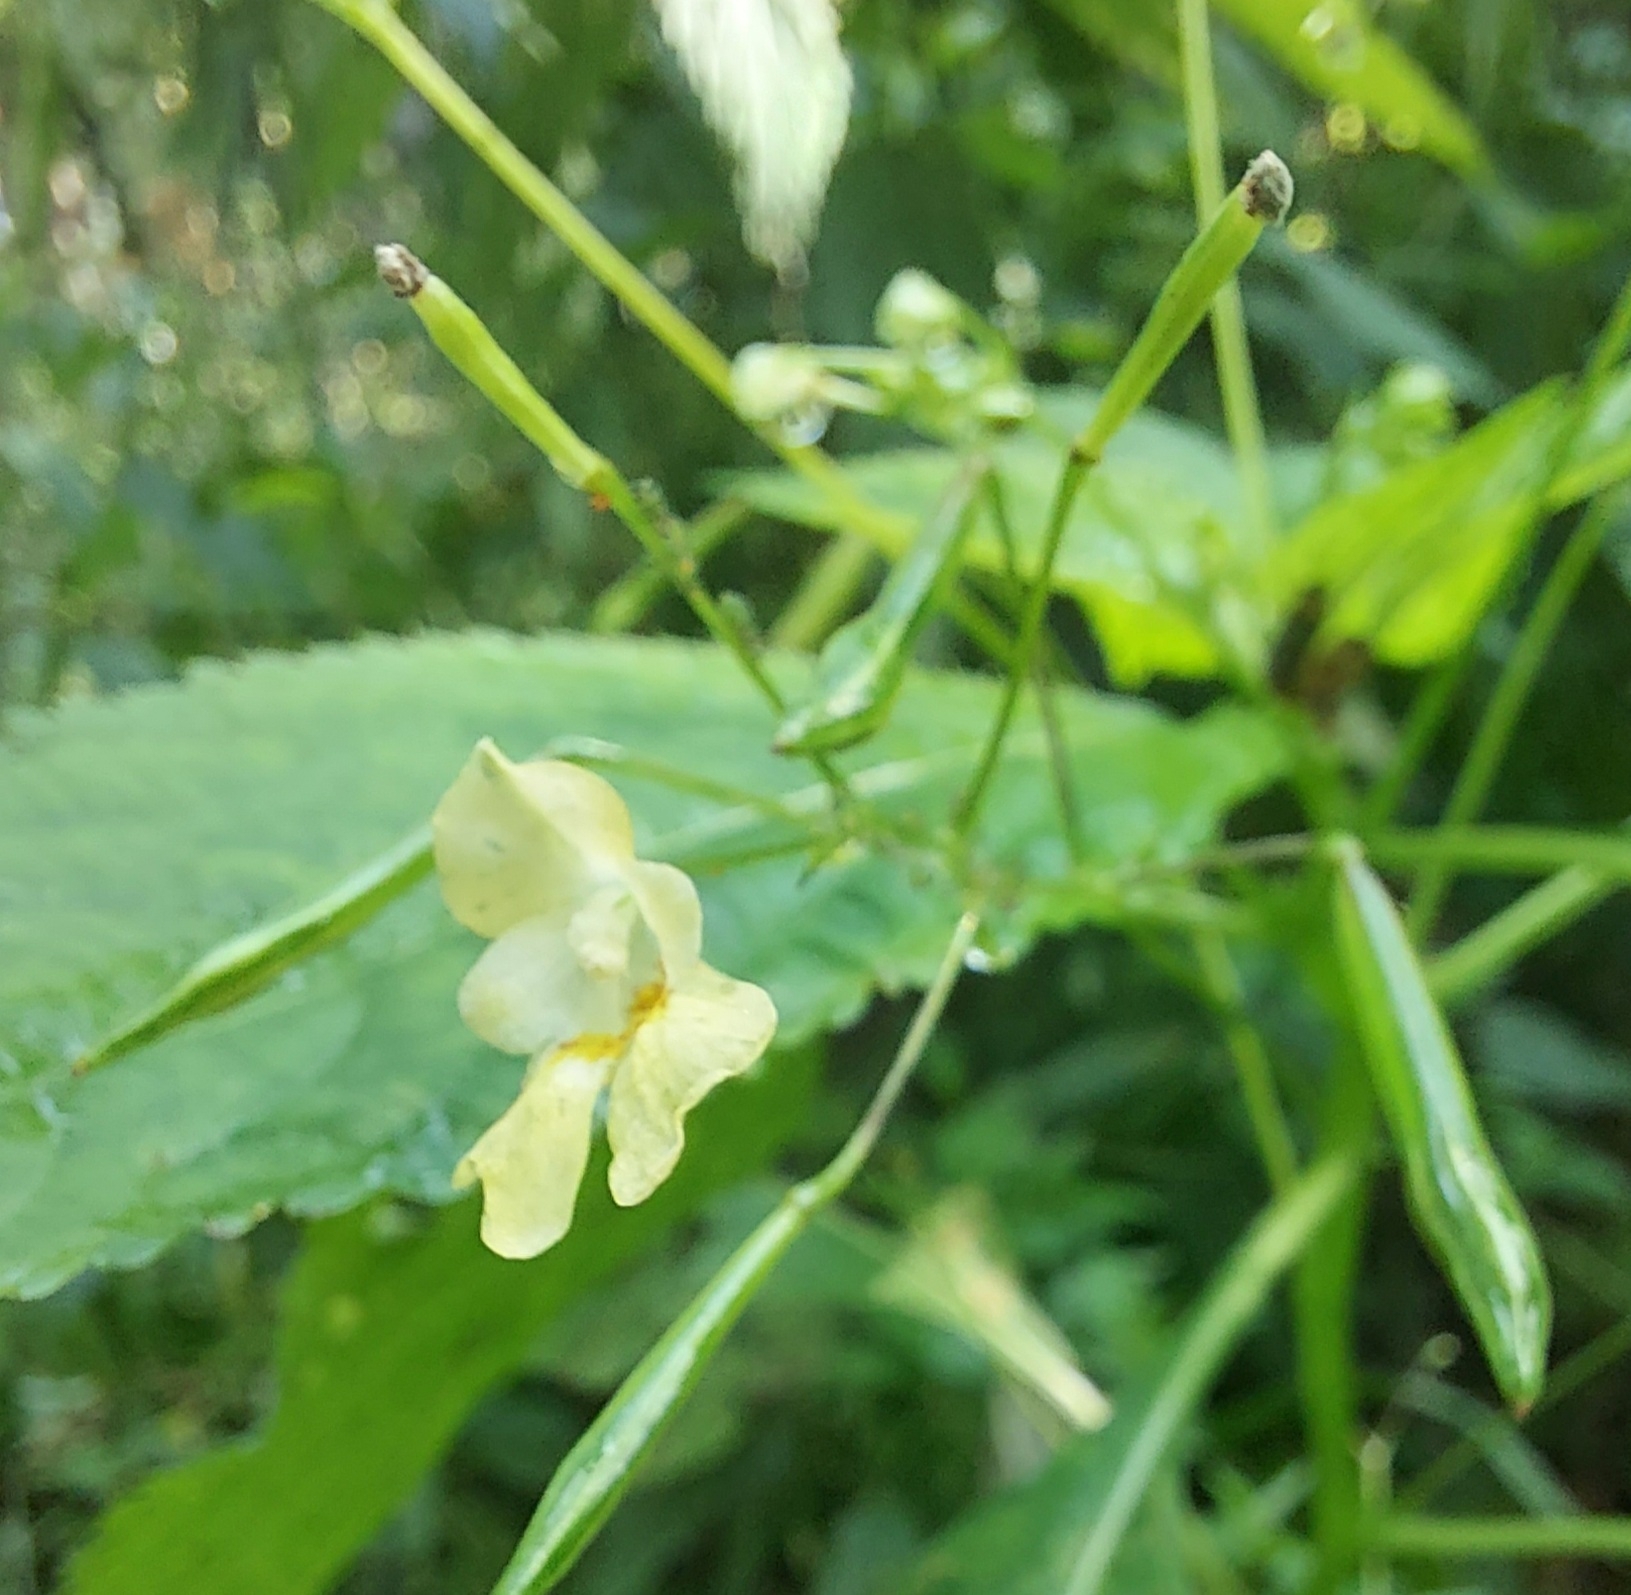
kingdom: Plantae
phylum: Tracheophyta
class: Magnoliopsida
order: Ericales
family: Balsaminaceae
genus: Impatiens
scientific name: Impatiens parviflora
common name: Small balsam
